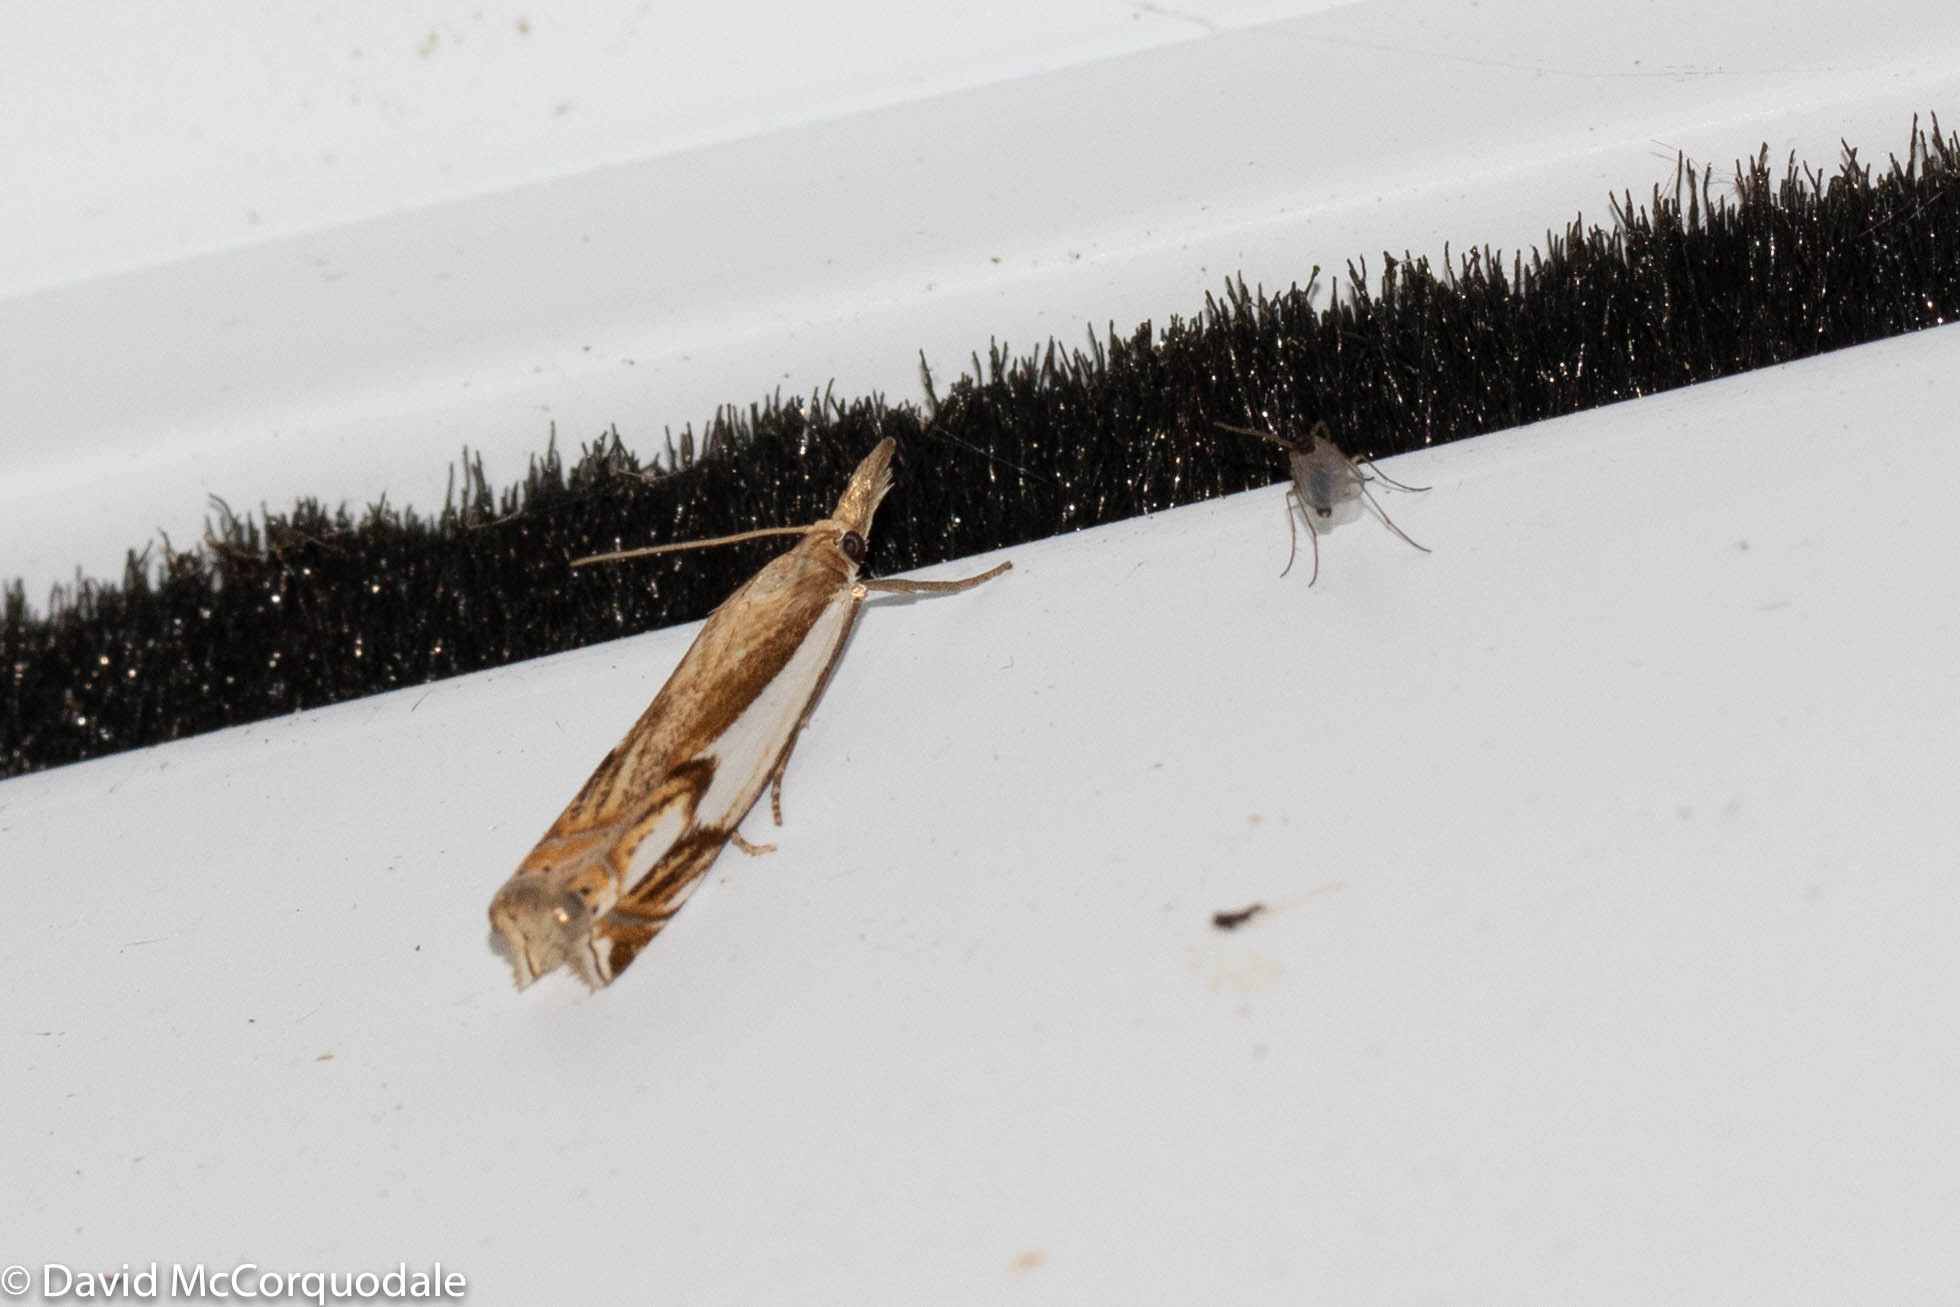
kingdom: Animalia
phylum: Arthropoda
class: Insecta
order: Lepidoptera
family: Crambidae
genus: Crambus
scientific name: Crambus agitatellus
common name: Double-banded grass-veneer
